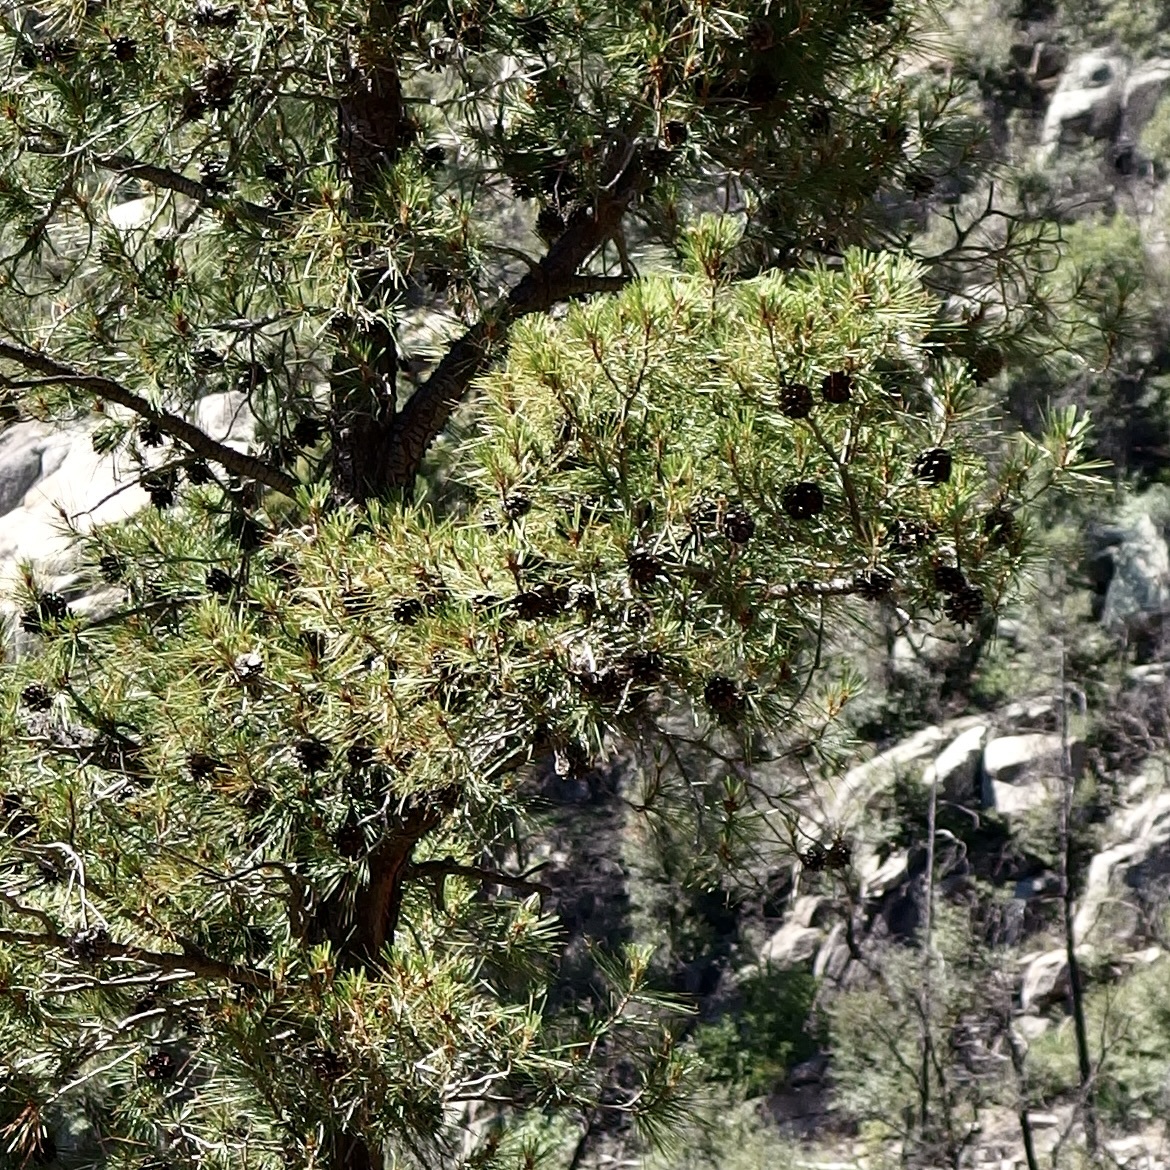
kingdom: Plantae
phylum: Tracheophyta
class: Pinopsida
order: Pinales
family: Pinaceae
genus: Pinus
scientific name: Pinus leiophylla
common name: Chihuahua pine
